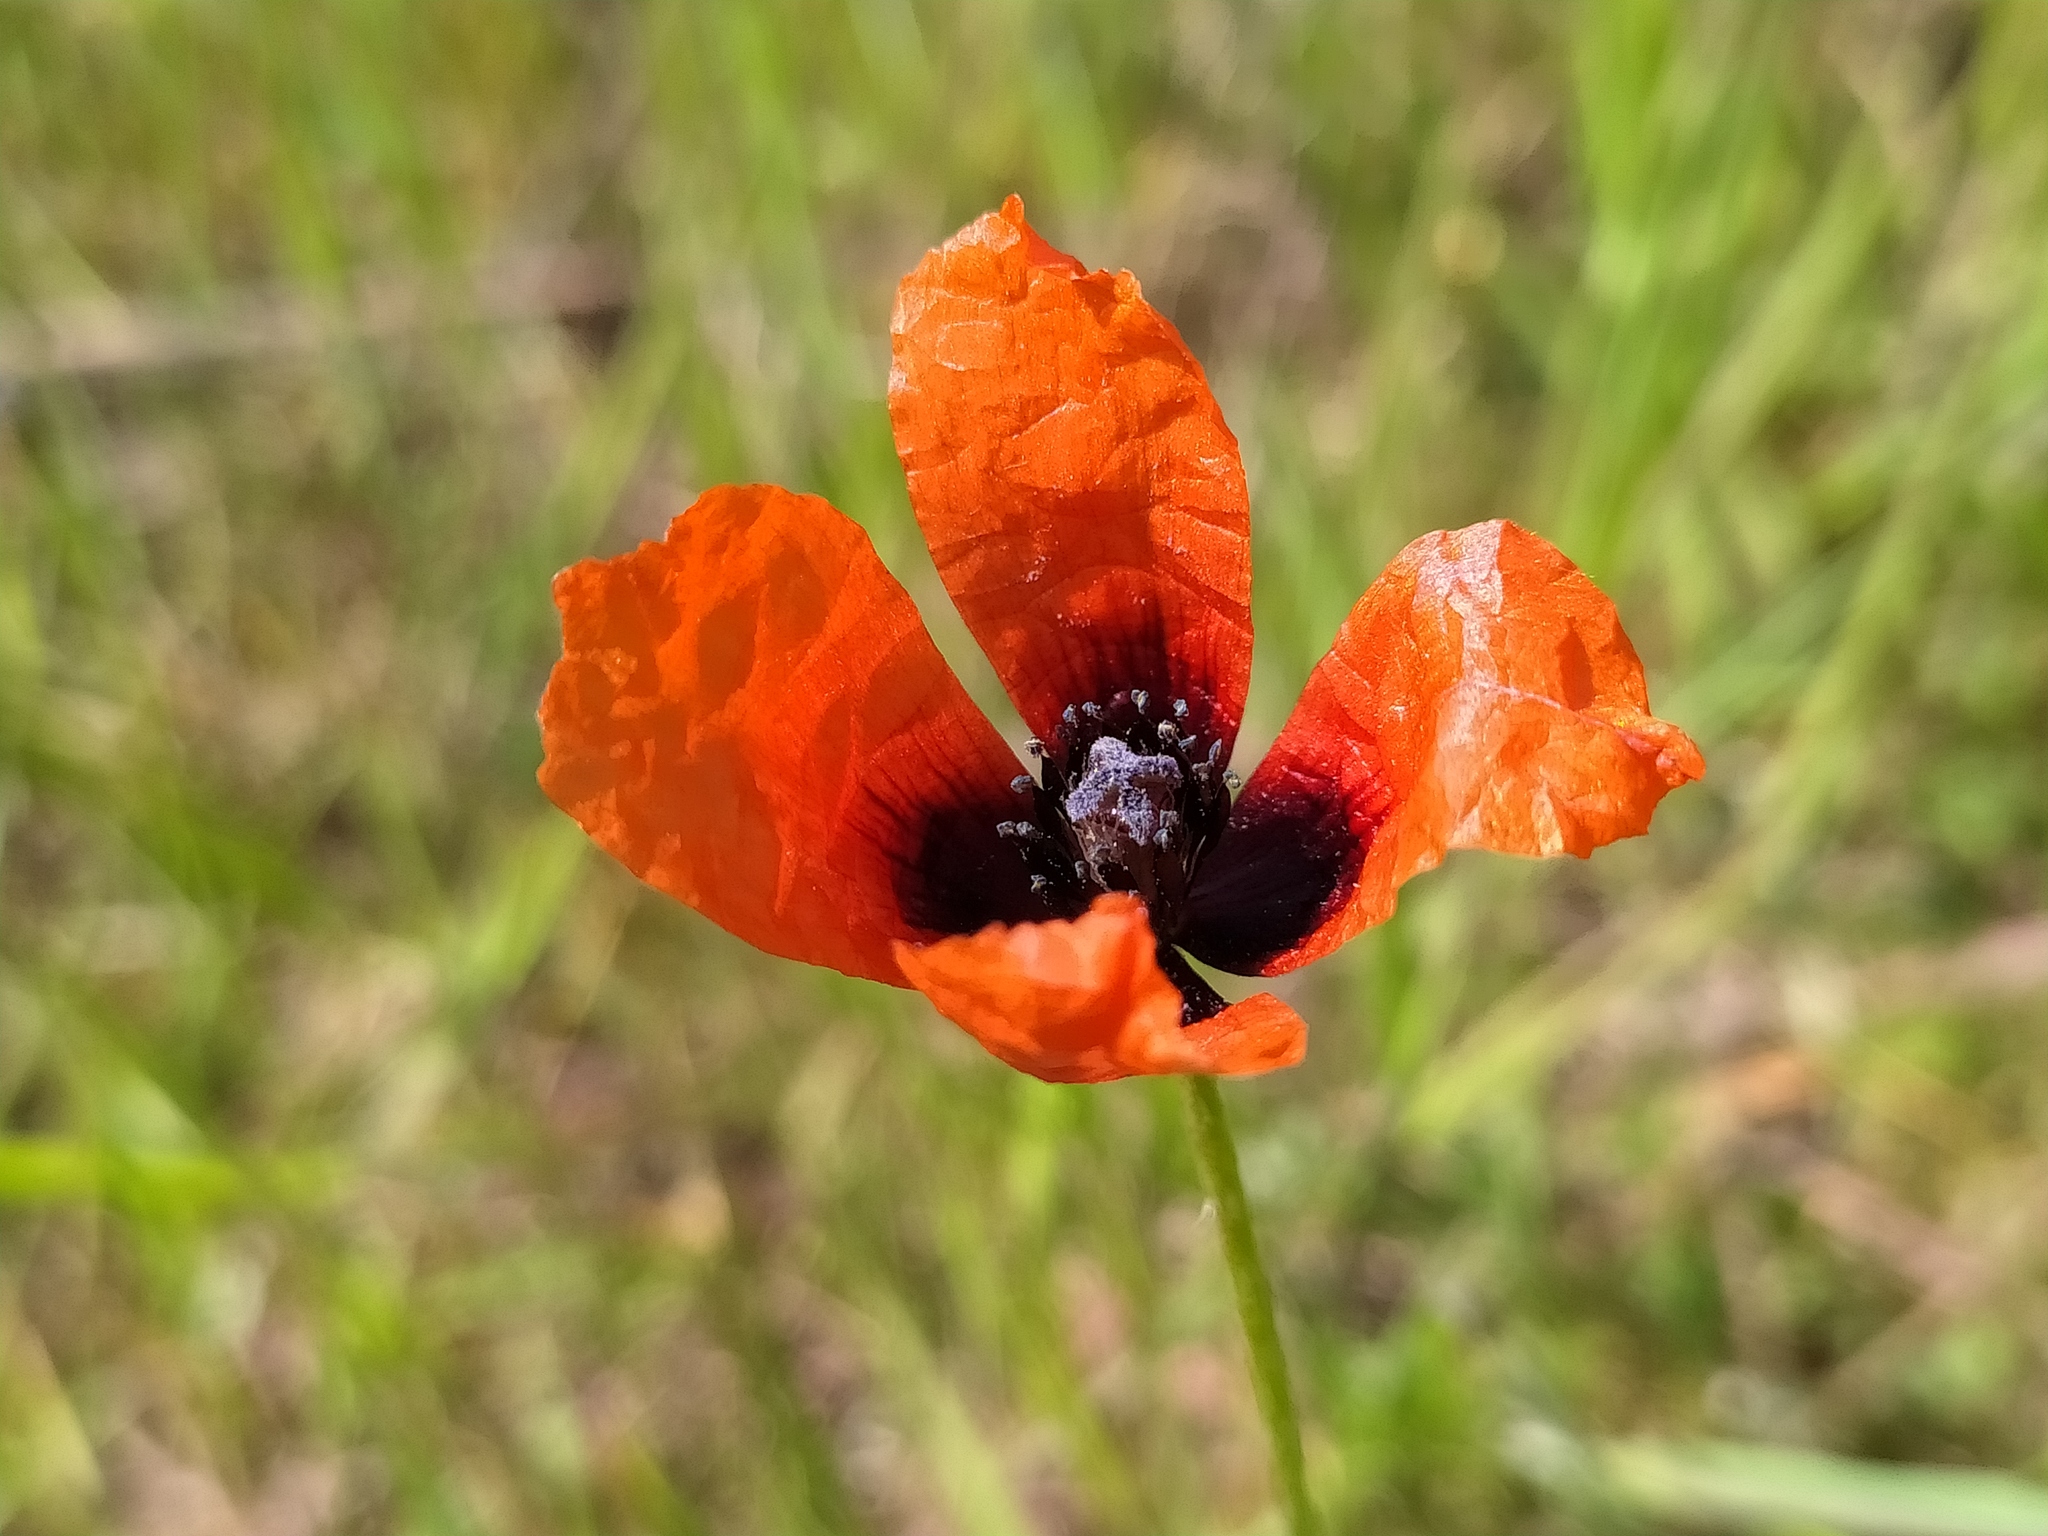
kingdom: Plantae
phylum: Tracheophyta
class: Magnoliopsida
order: Ranunculales
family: Papaveraceae
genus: Roemeria
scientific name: Roemeria argemone
